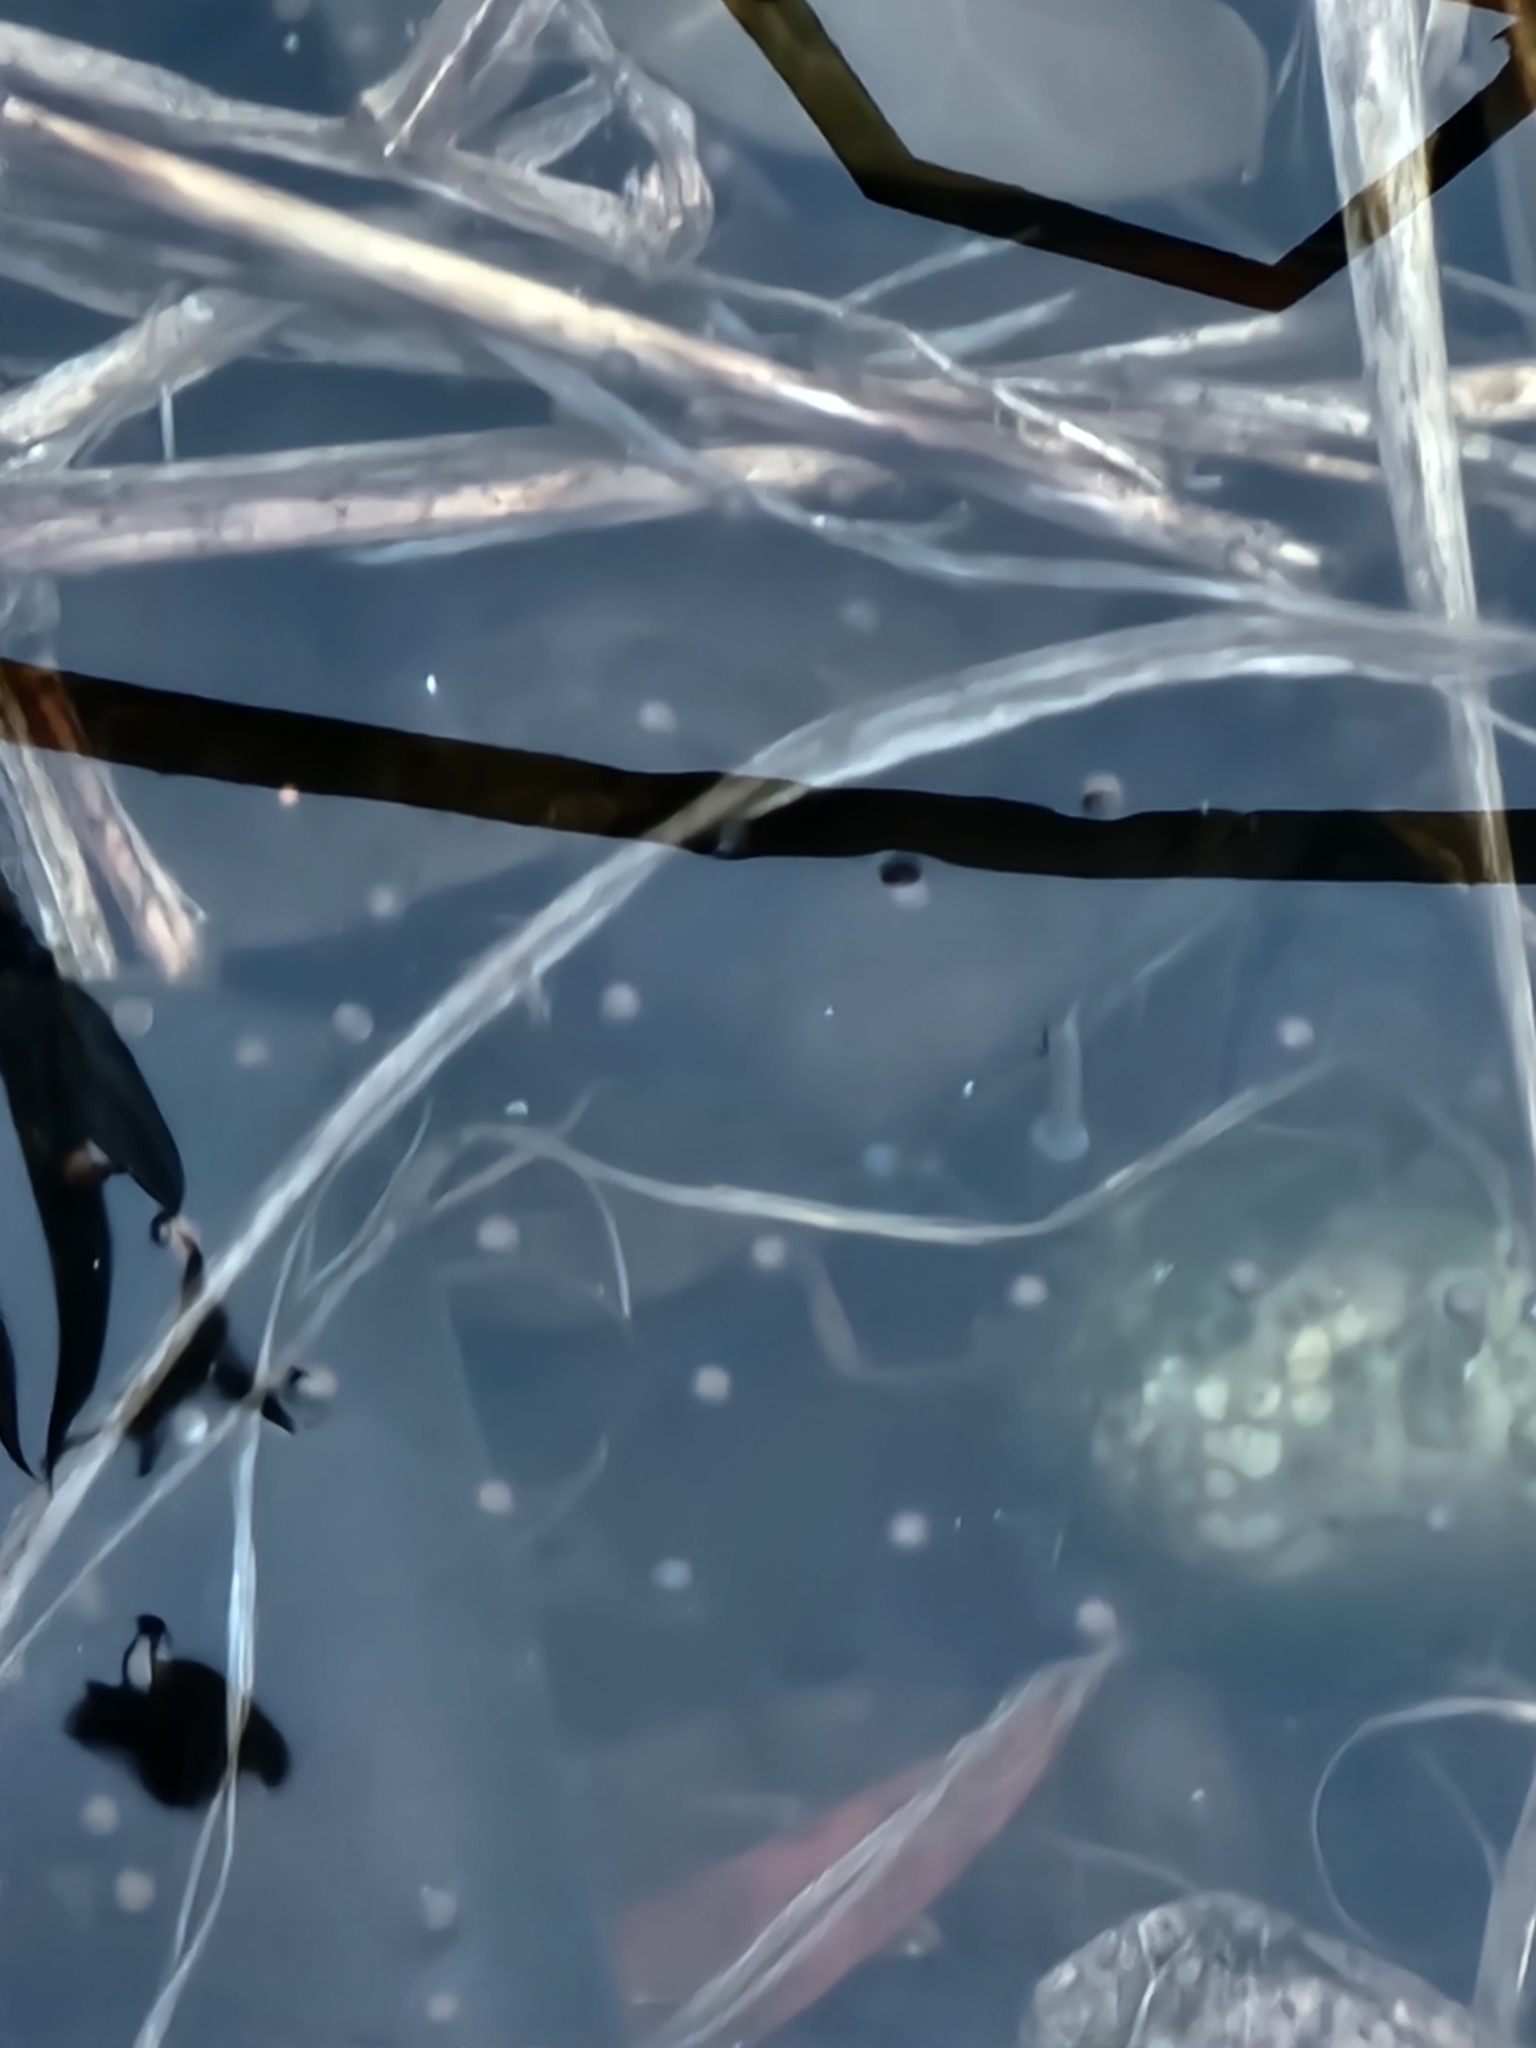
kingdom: Animalia
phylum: Chordata
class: Amphibia
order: Anura
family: Pelodryadidae
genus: Ranoidea
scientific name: Ranoidea caerulea
